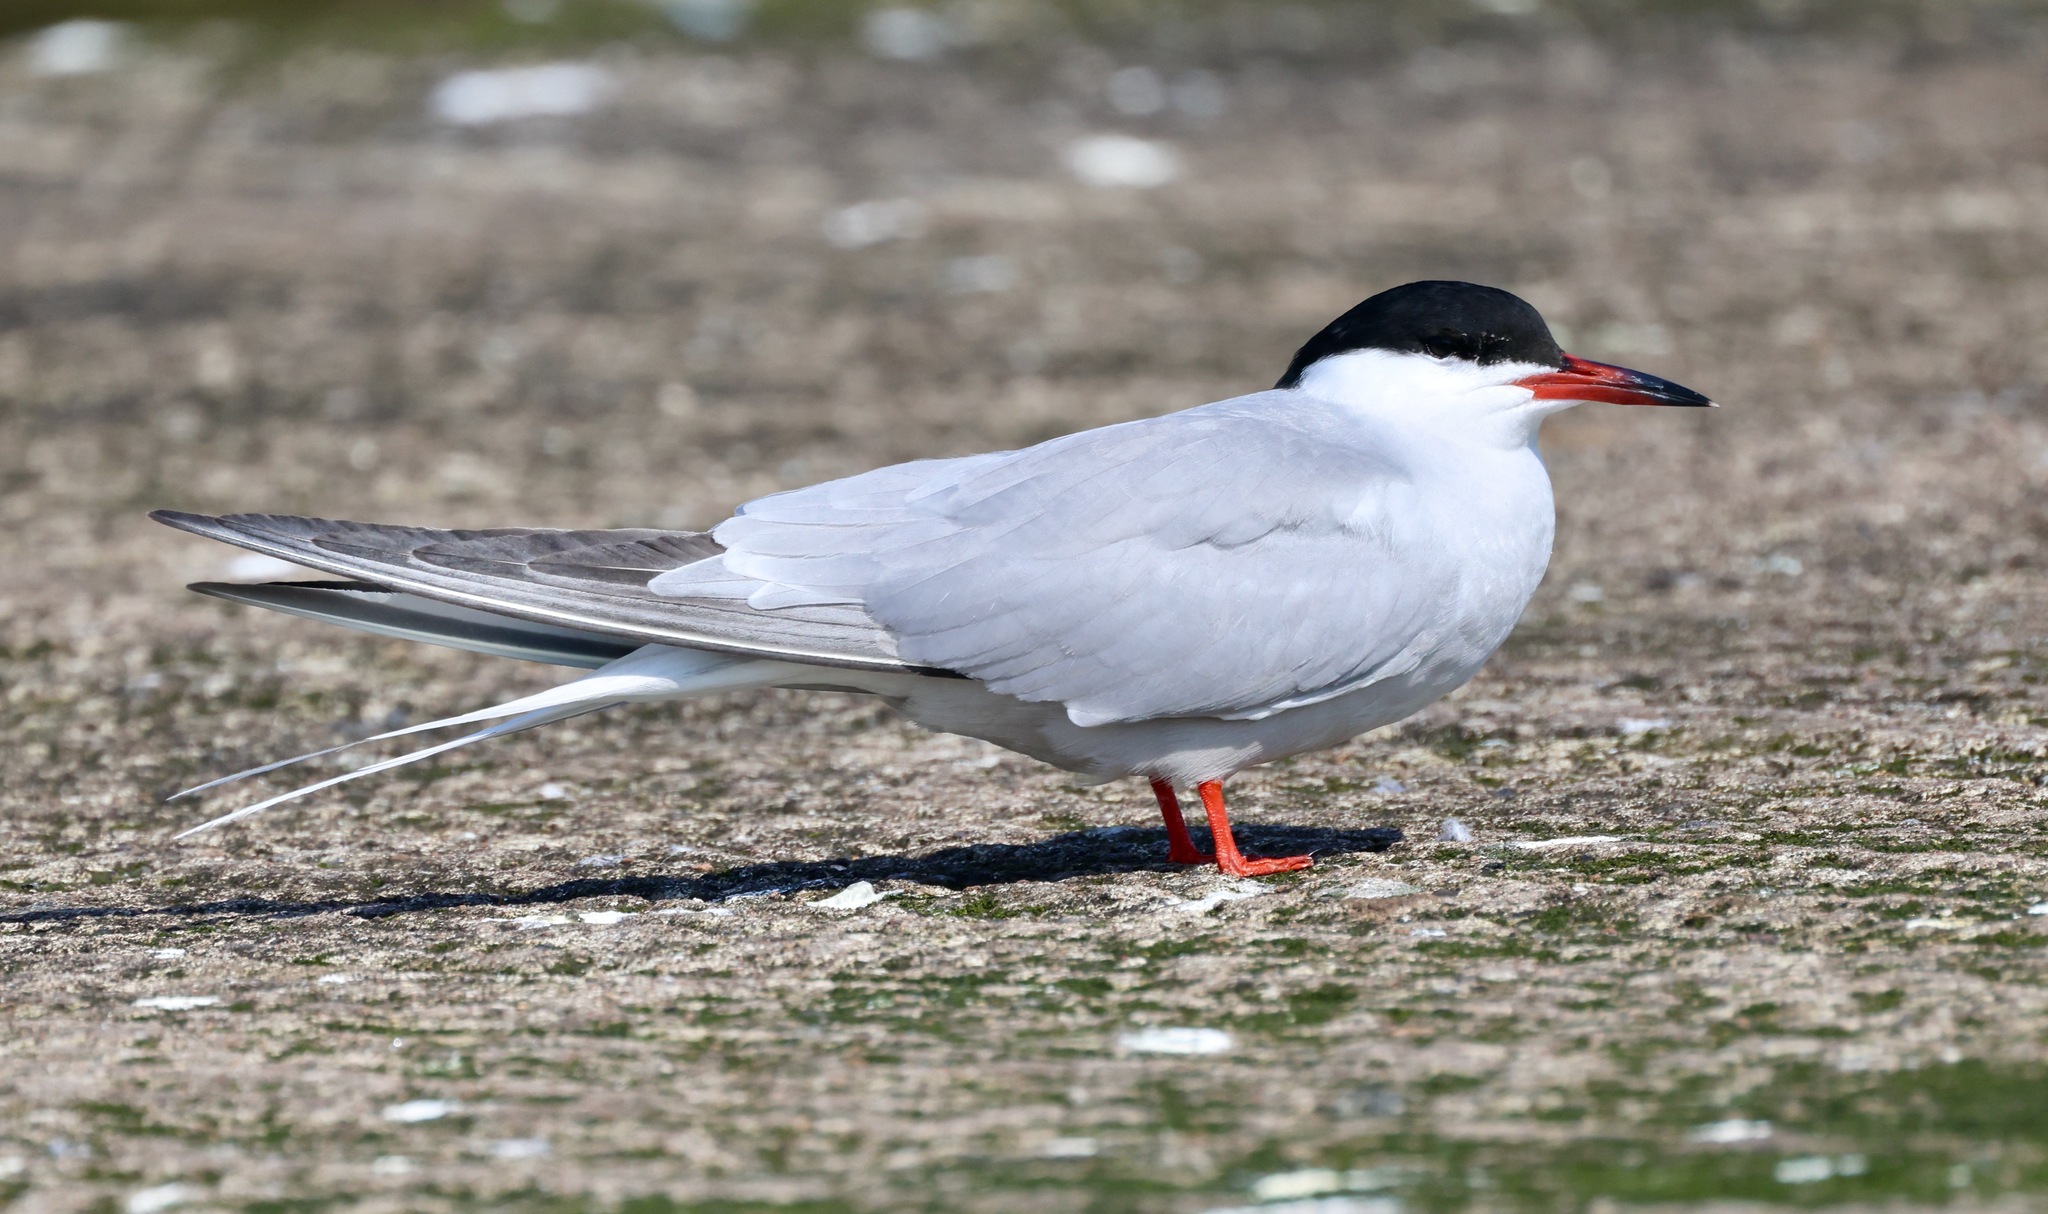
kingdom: Animalia
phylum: Chordata
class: Aves
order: Charadriiformes
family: Laridae
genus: Sterna
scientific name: Sterna hirundo
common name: Common tern
